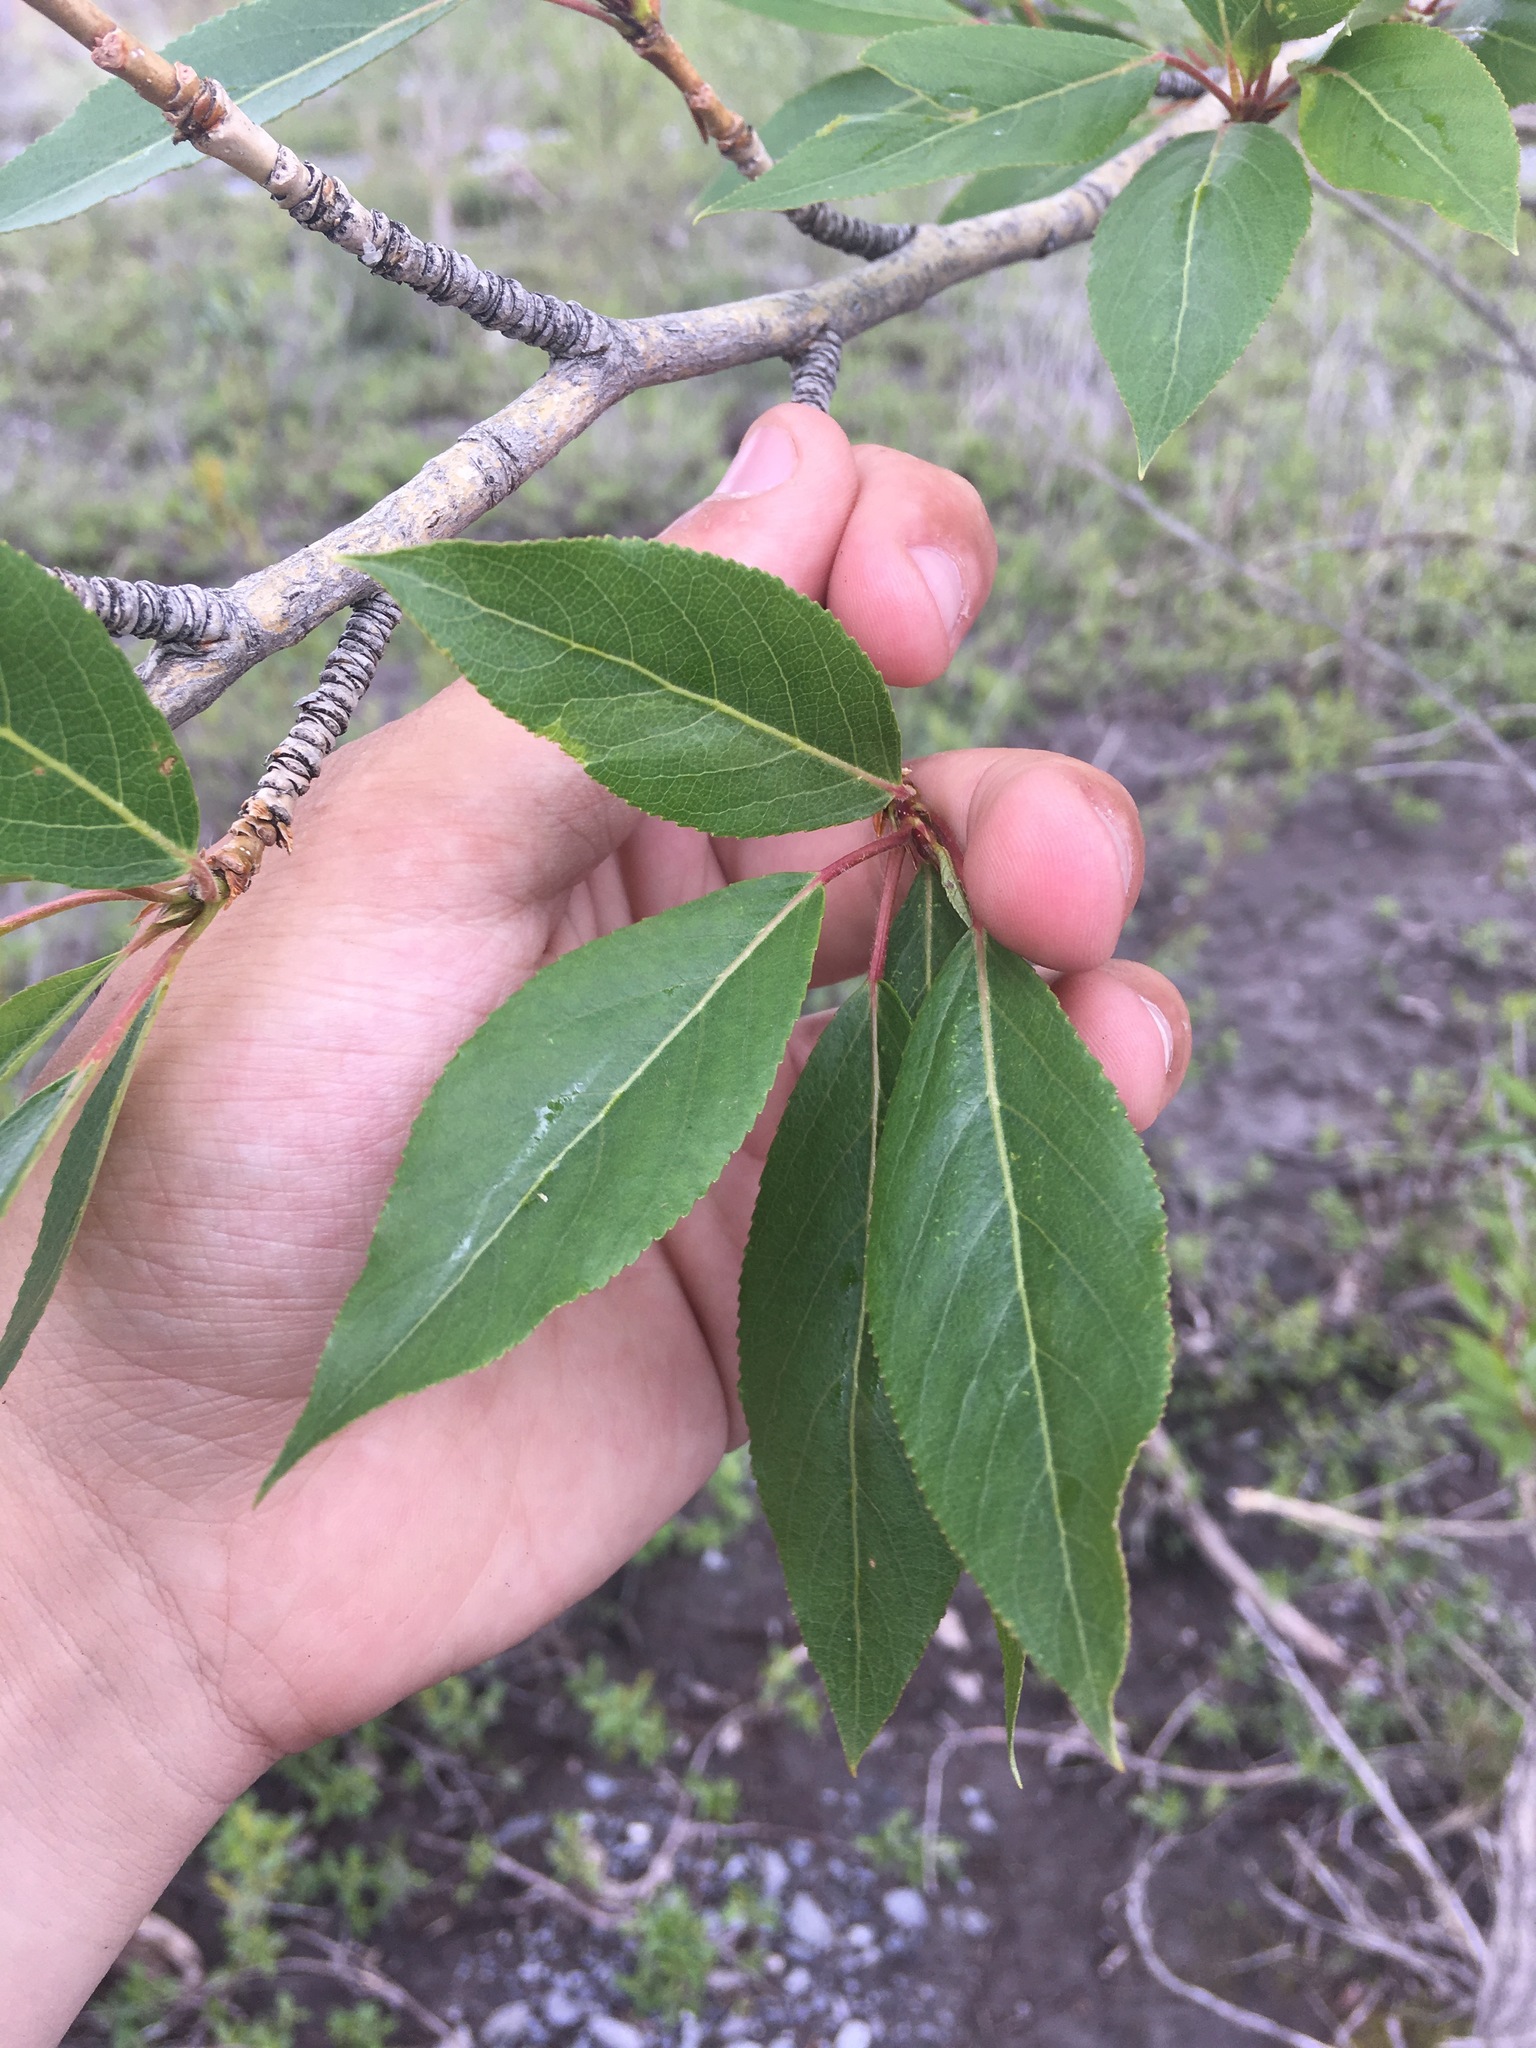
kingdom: Plantae
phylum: Tracheophyta
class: Magnoliopsida
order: Malpighiales
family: Salicaceae
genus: Populus
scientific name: Populus suaveolens
